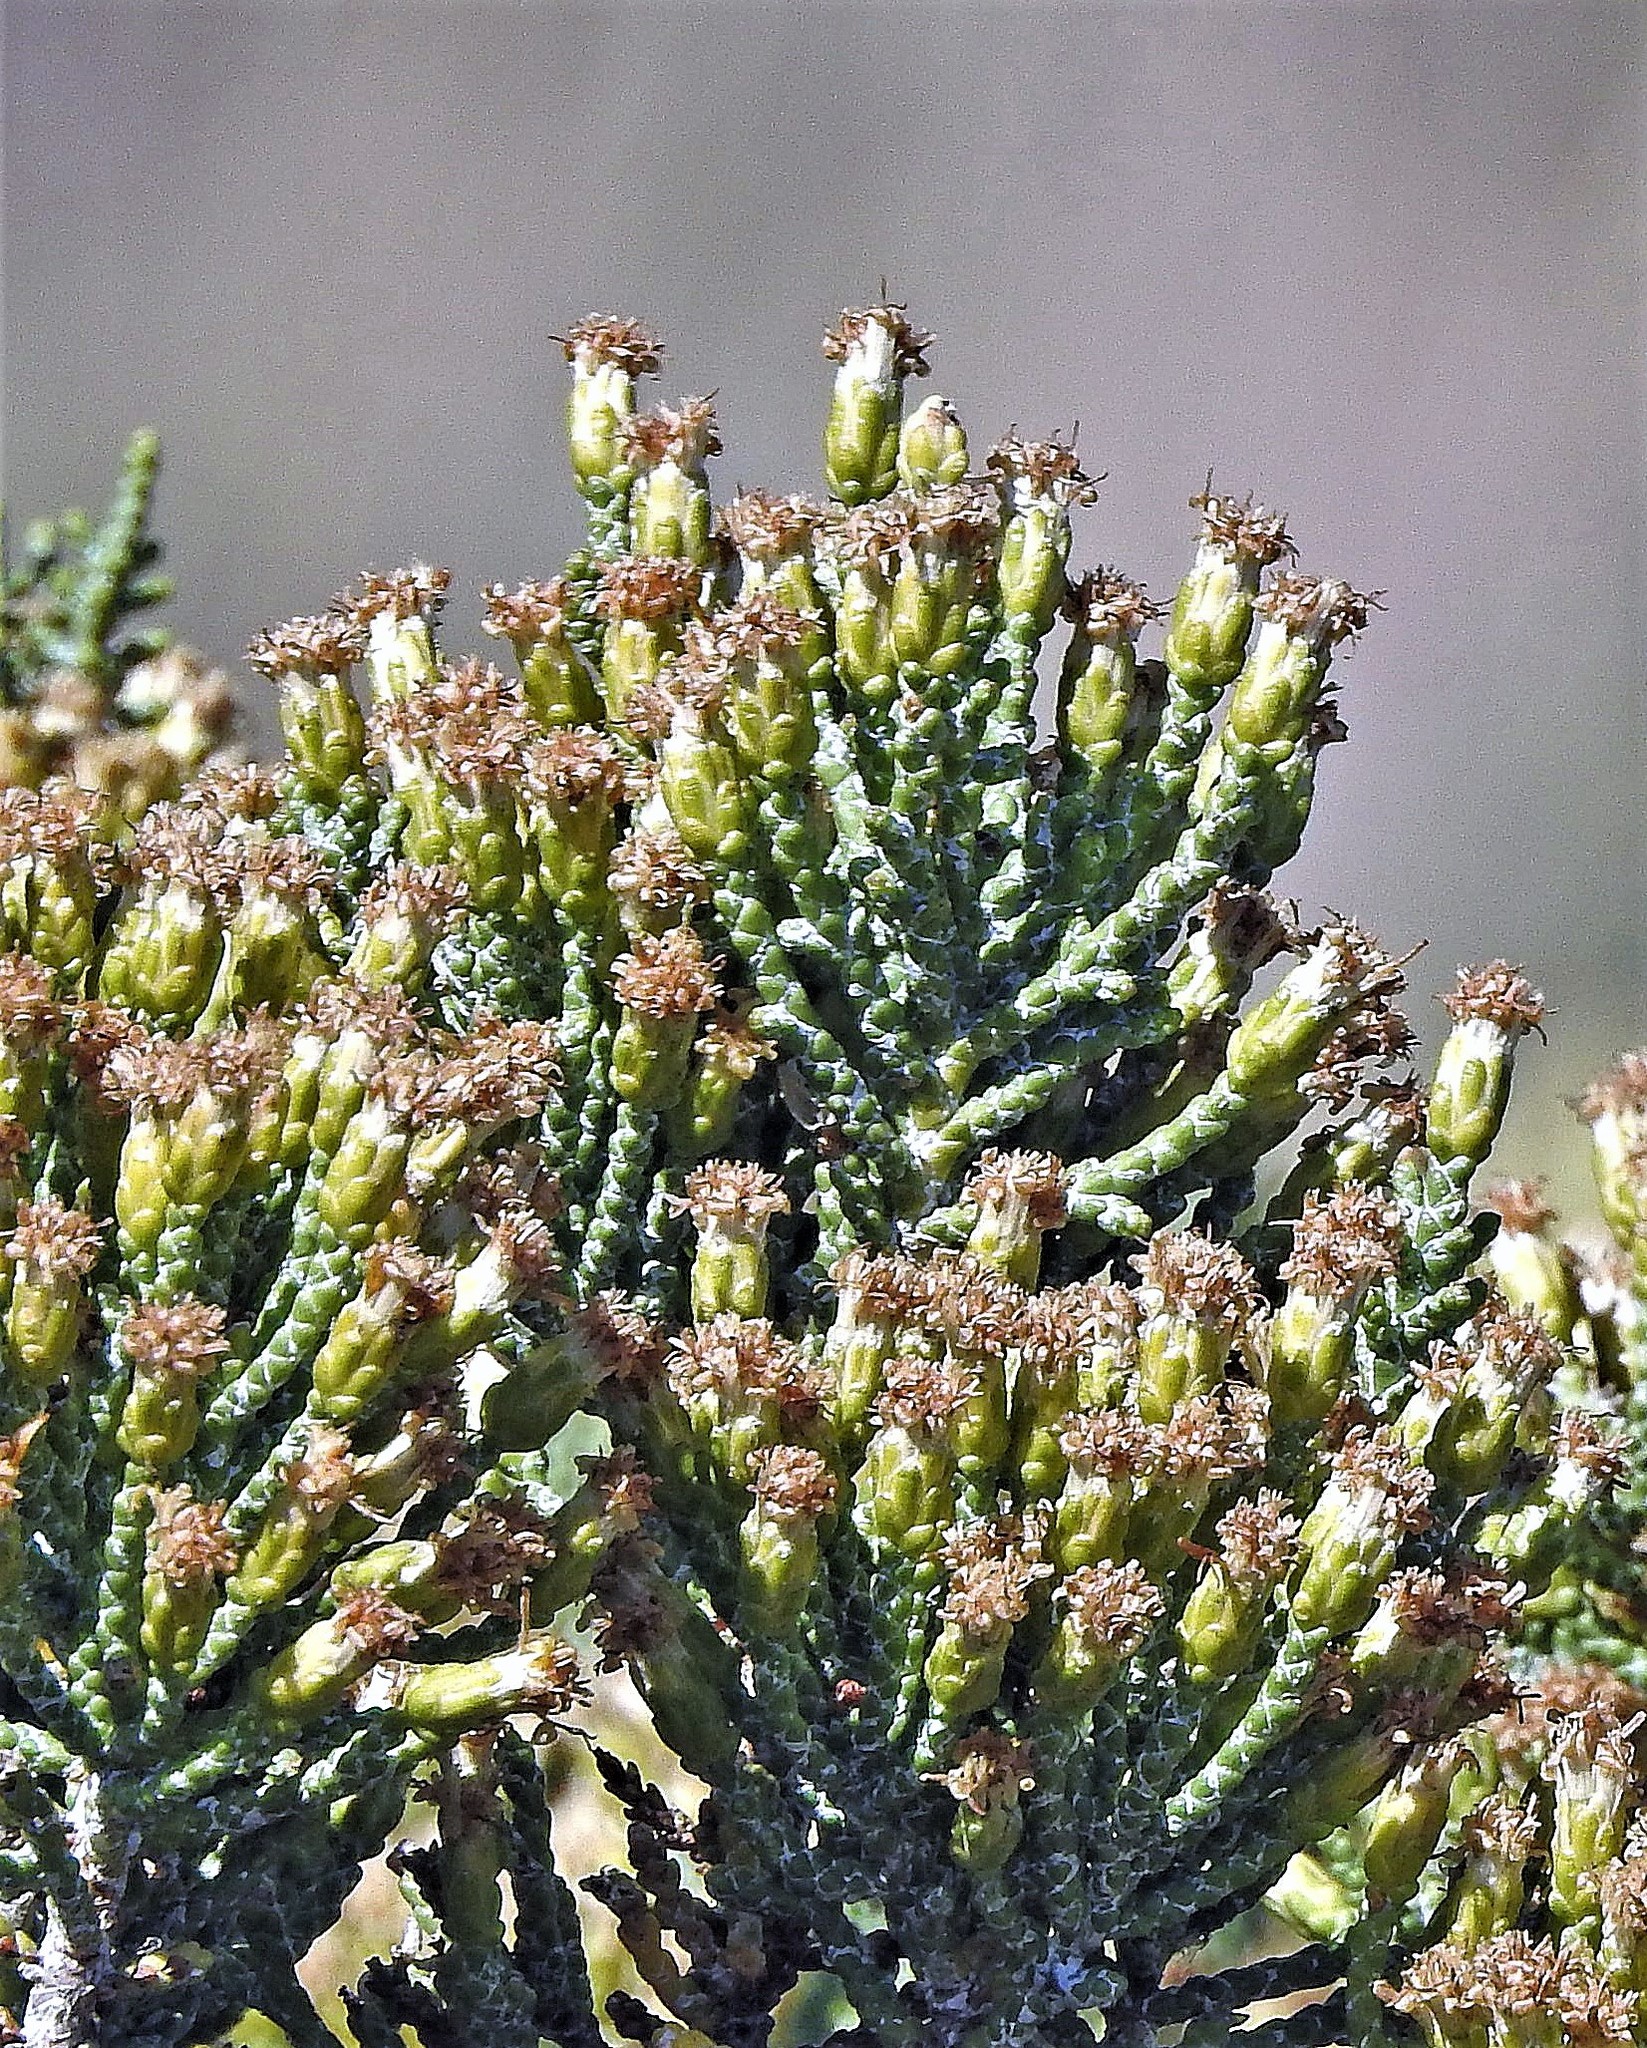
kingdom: Plantae
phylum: Tracheophyta
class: Magnoliopsida
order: Asterales
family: Asteraceae
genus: Lepidophyllum
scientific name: Lepidophyllum cupressiforme
